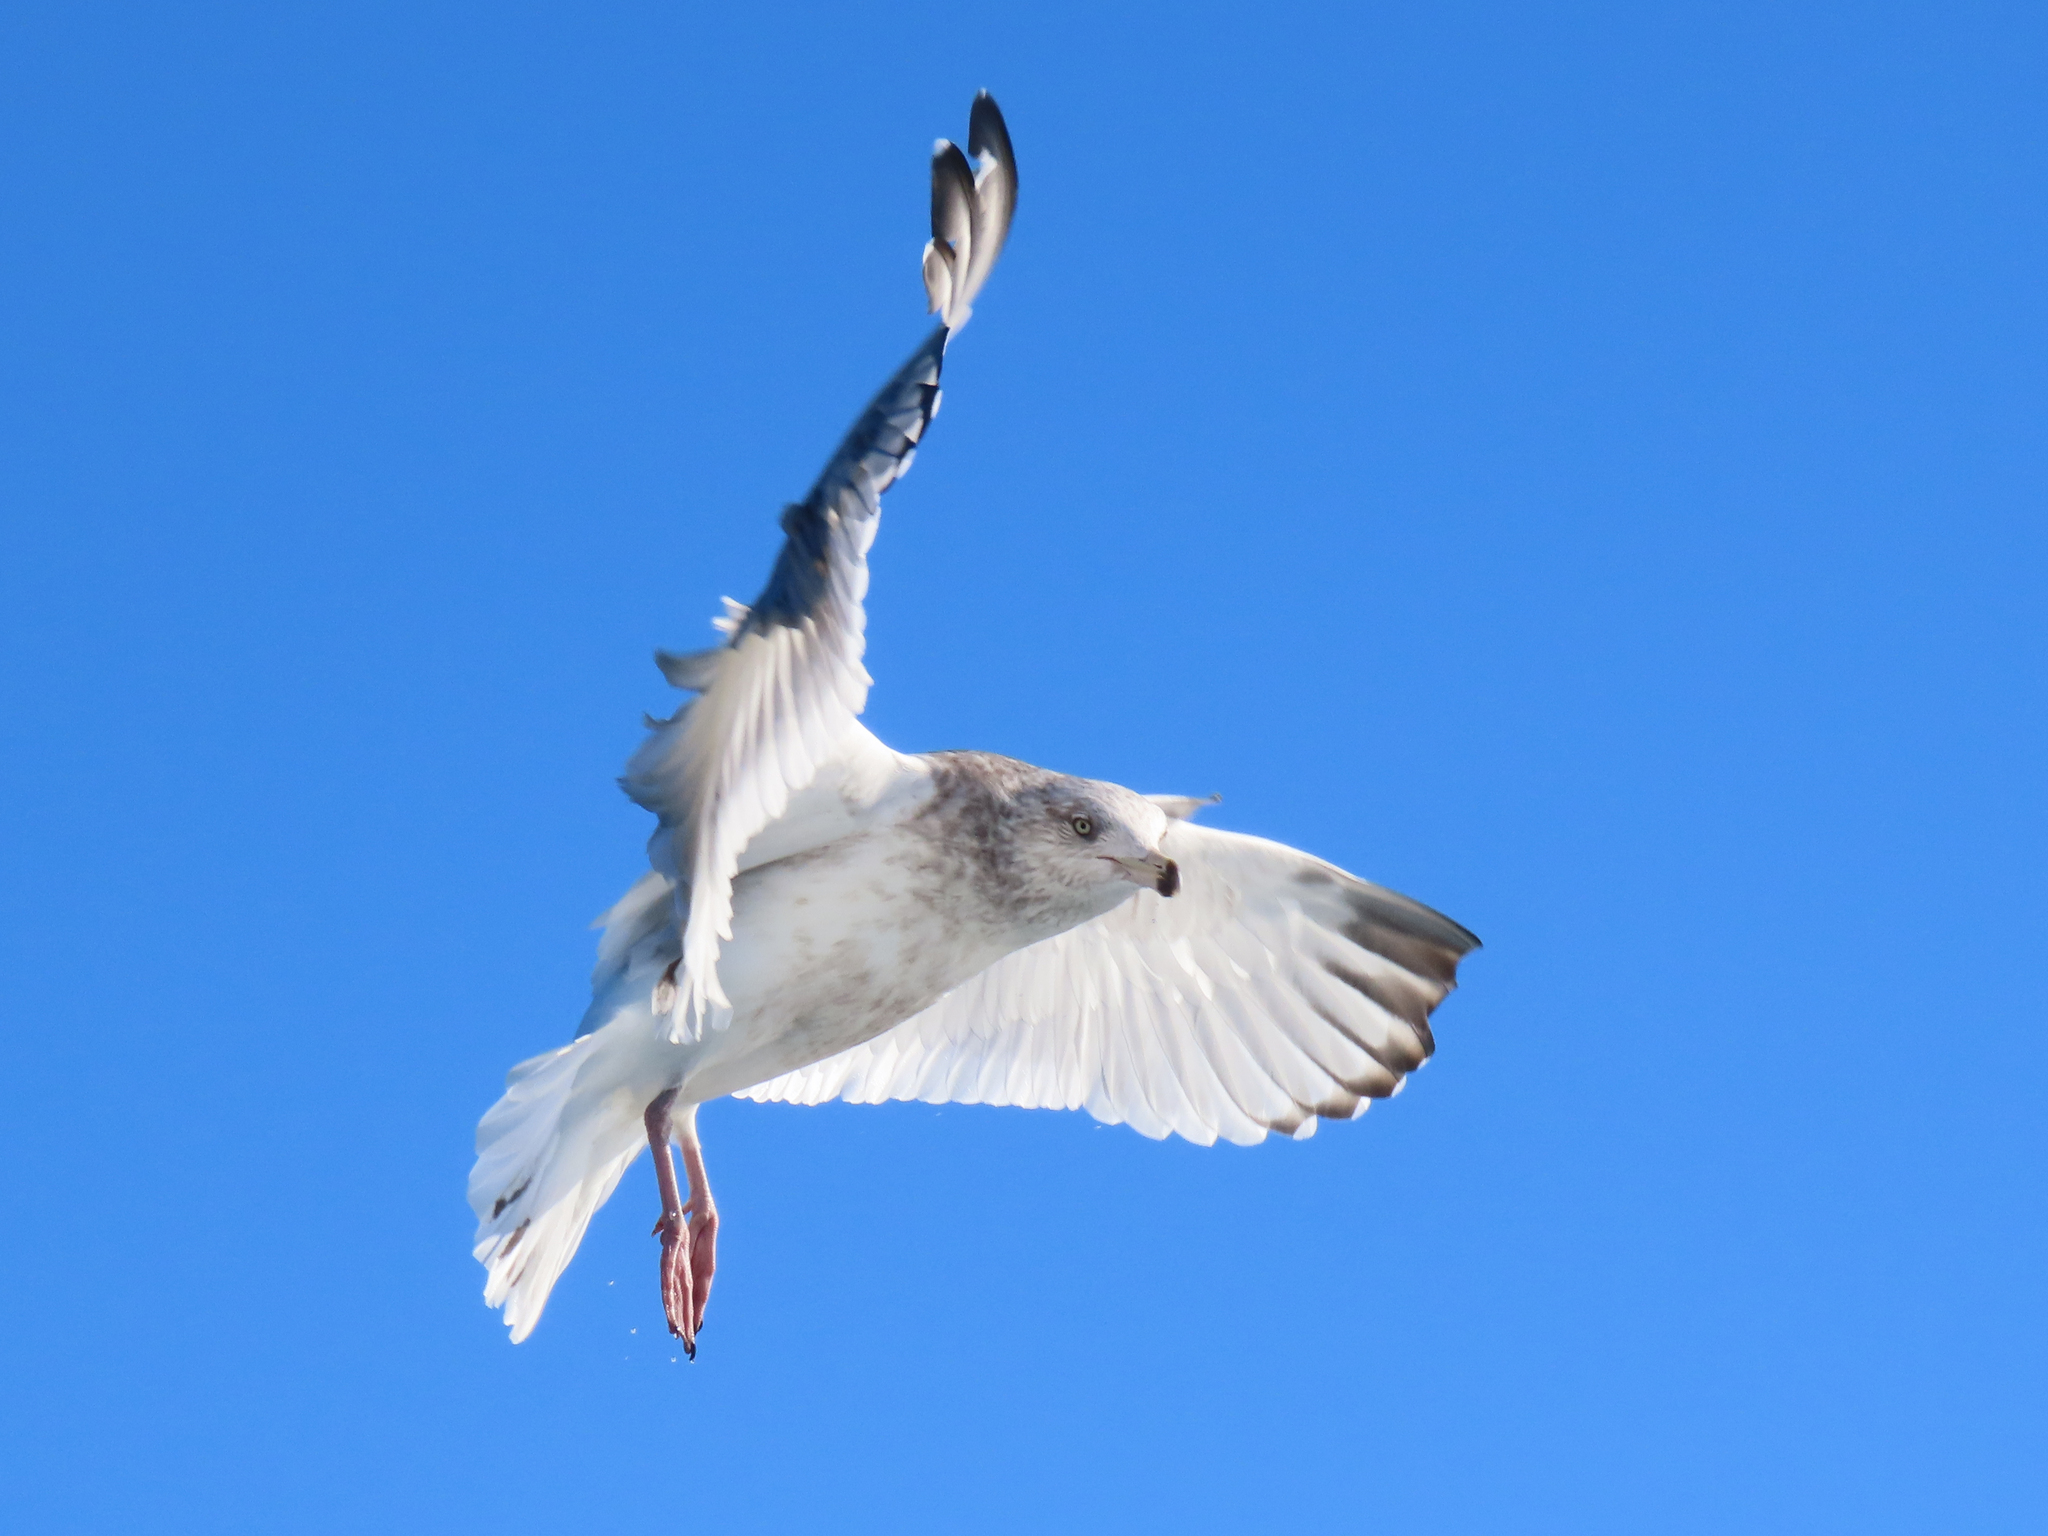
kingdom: Animalia
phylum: Chordata
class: Aves
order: Charadriiformes
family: Laridae
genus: Larus
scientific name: Larus argentatus
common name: Herring gull
